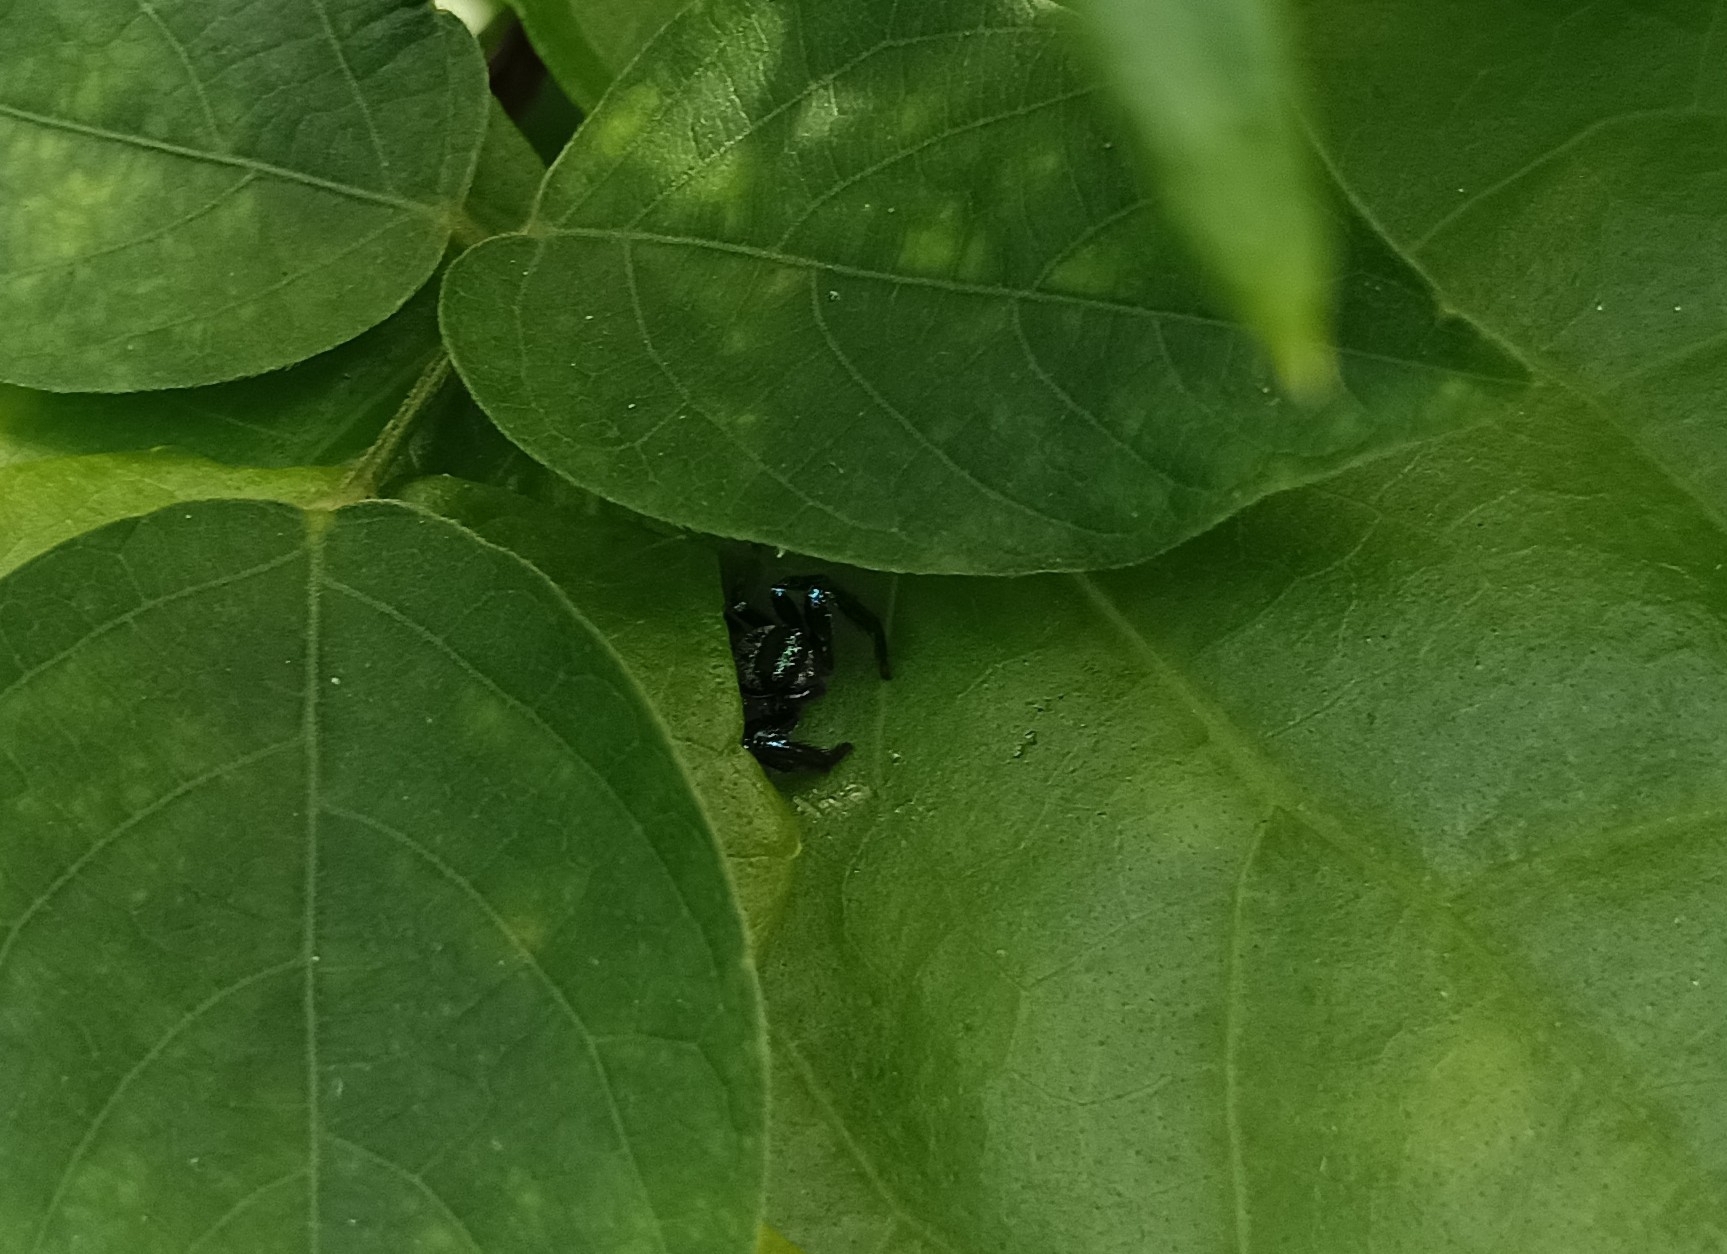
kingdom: Animalia
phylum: Arthropoda
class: Arachnida
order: Araneae
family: Salticidae
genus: Thiania
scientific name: Thiania bhamoensis
